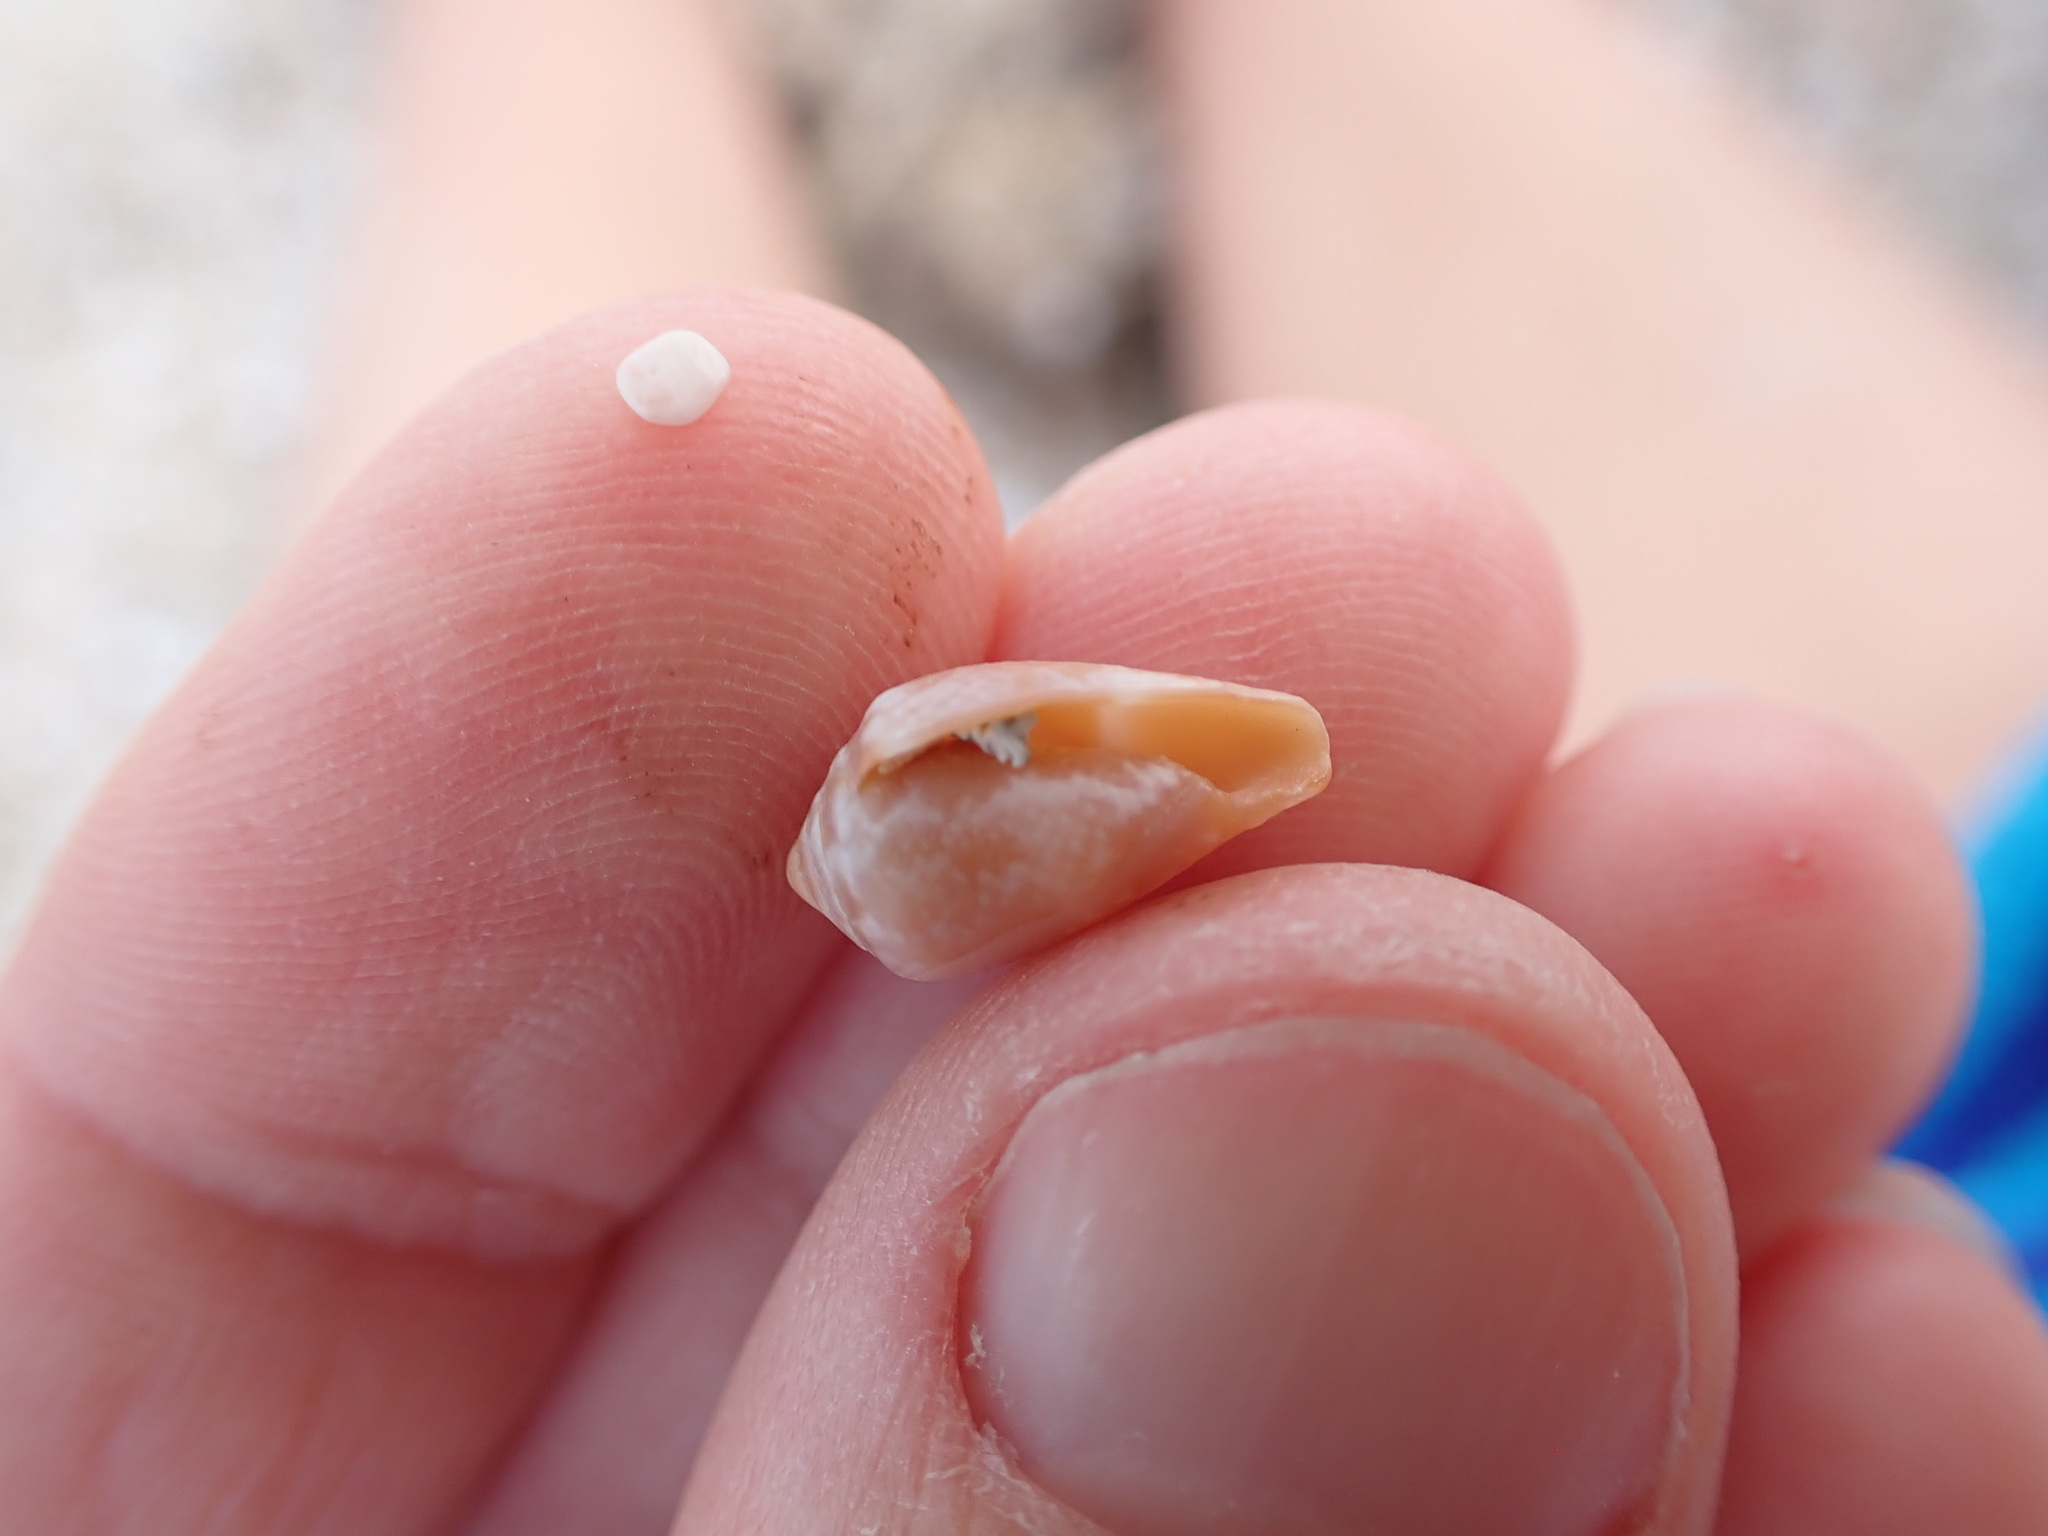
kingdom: Animalia
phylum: Mollusca
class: Gastropoda
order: Neogastropoda
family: Conidae
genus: Conus
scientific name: Conus ventricosus
